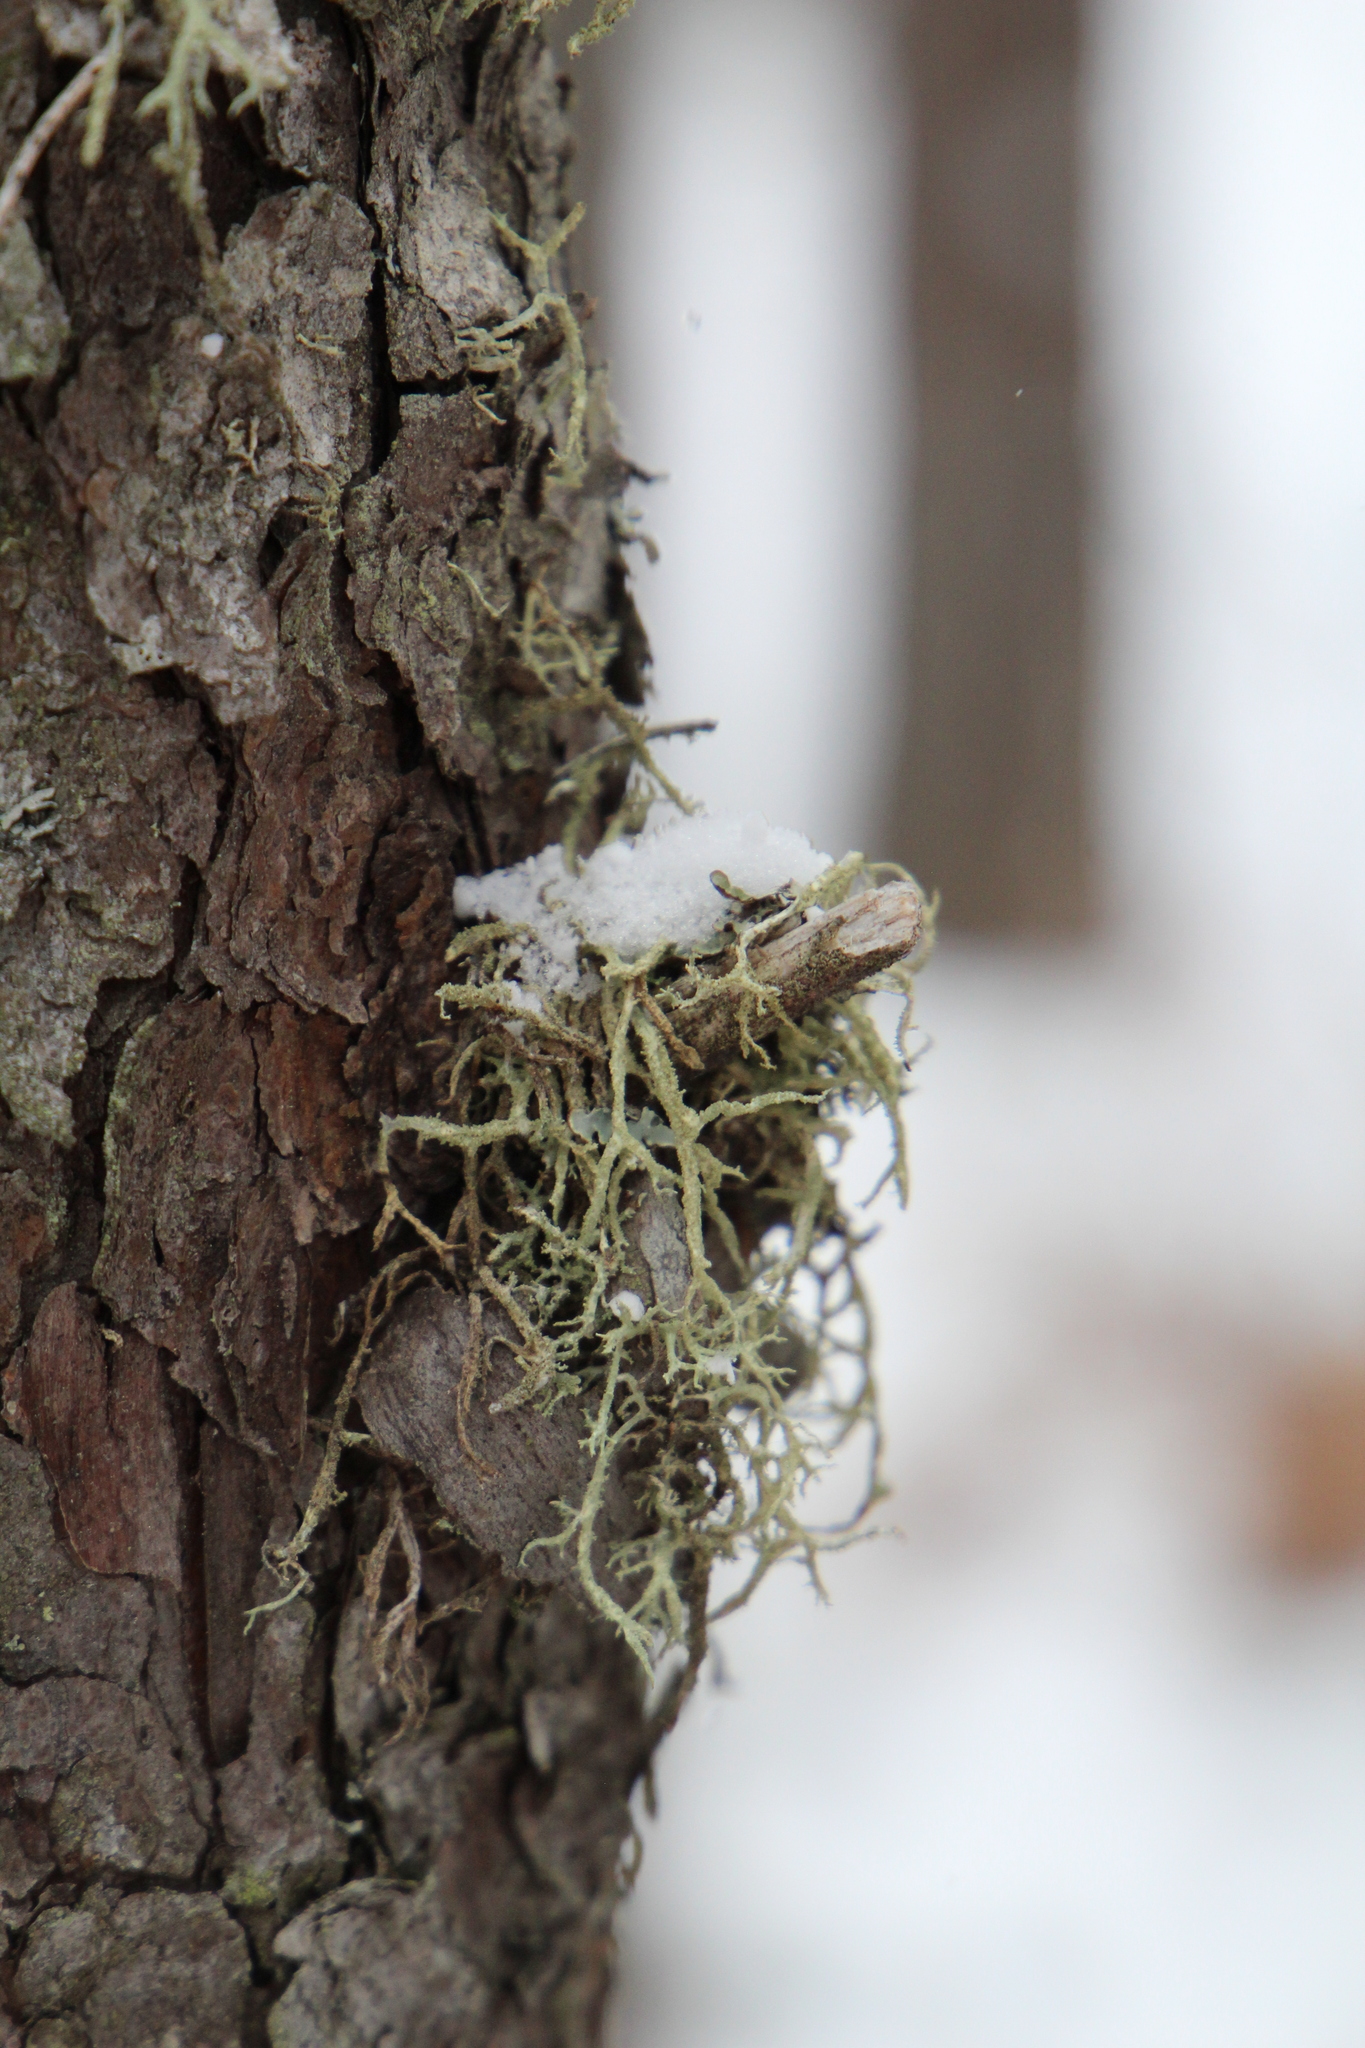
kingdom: Fungi
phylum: Ascomycota
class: Lecanoromycetes
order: Lecanorales
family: Parmeliaceae
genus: Evernia
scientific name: Evernia mesomorpha
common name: Boreal oak moss lichen
